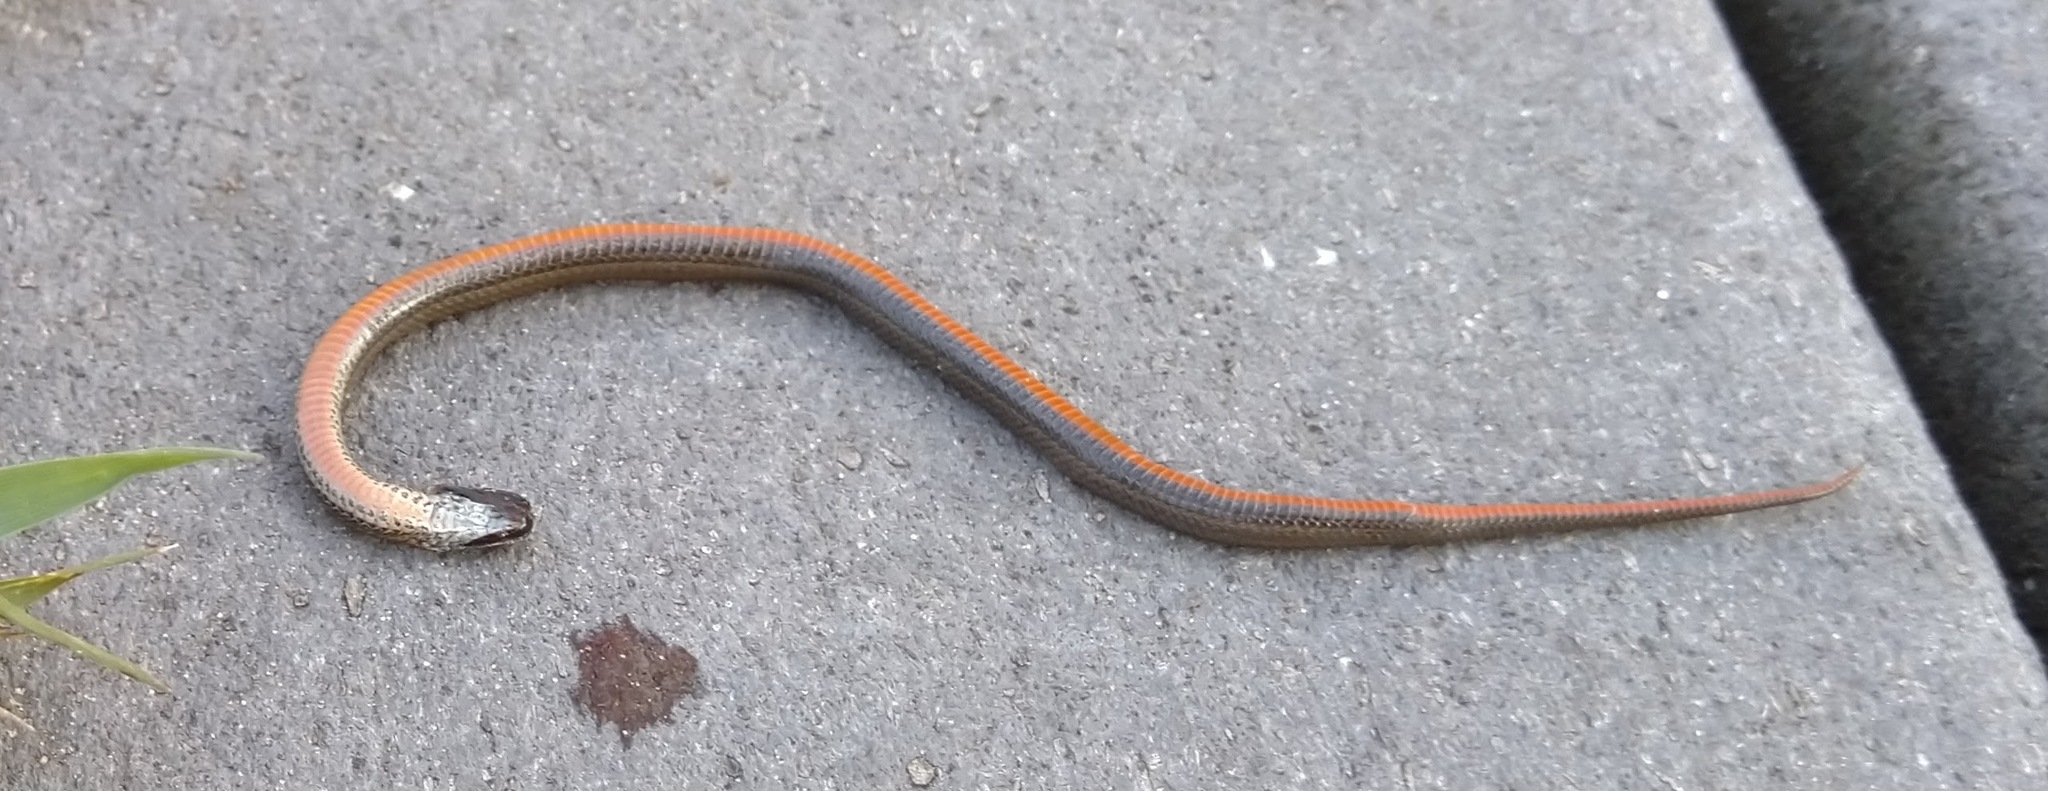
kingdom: Animalia
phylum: Chordata
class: Squamata
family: Colubridae
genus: Storeria
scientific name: Storeria occipitomaculata
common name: Redbelly snake
